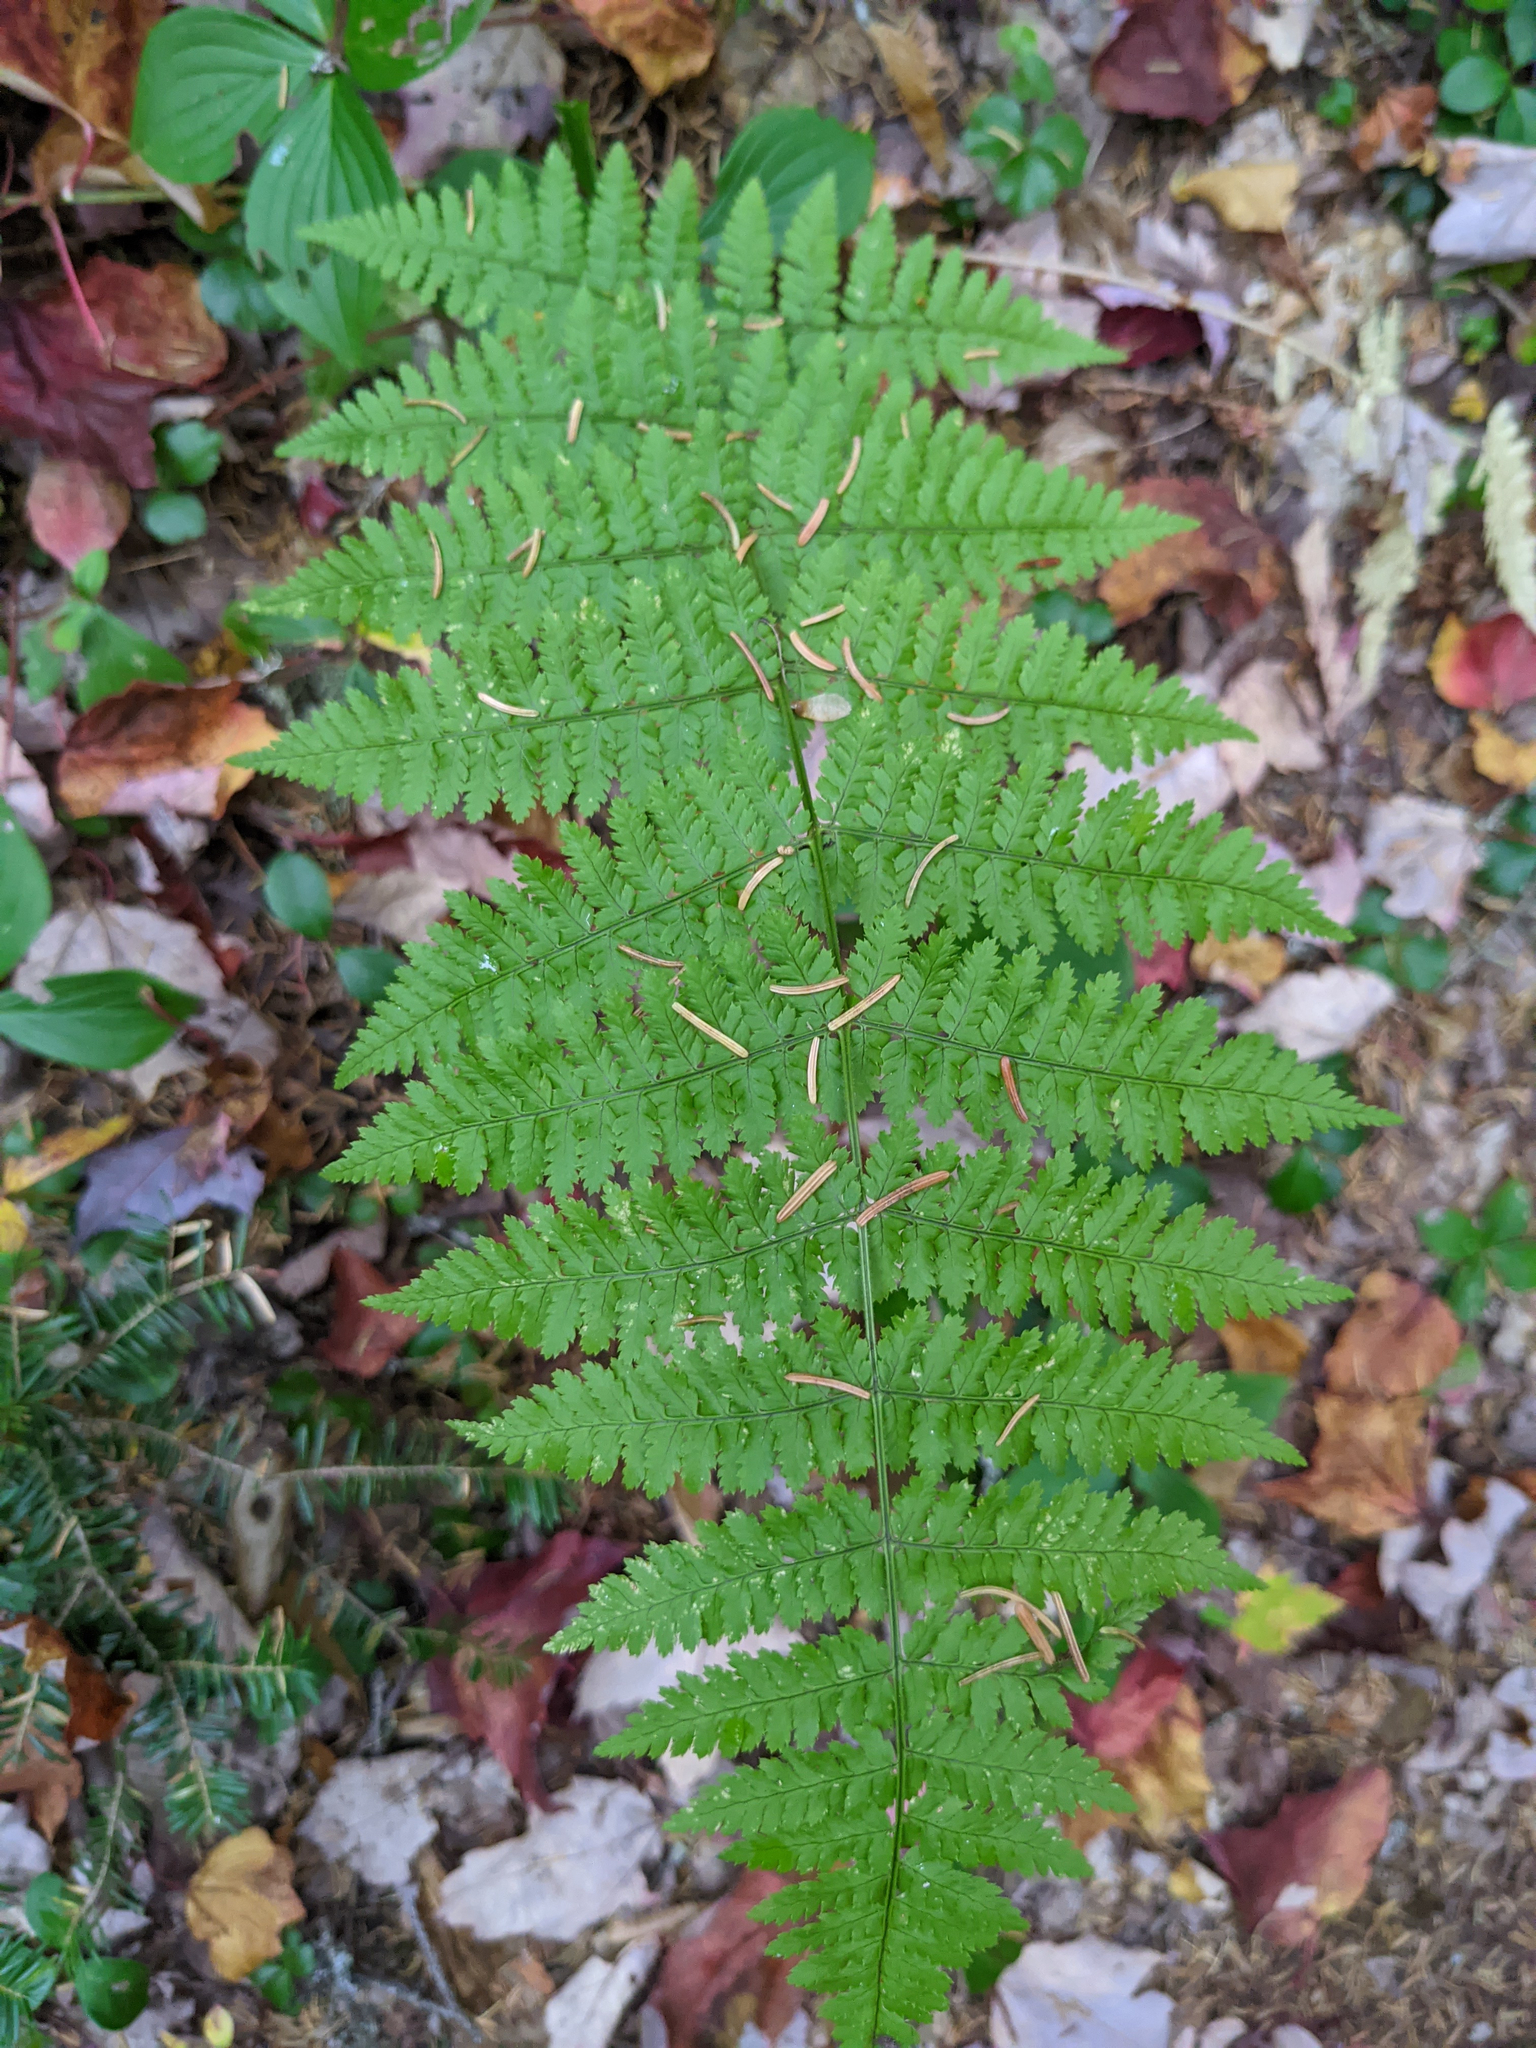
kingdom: Plantae
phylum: Tracheophyta
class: Polypodiopsida
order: Polypodiales
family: Dryopteridaceae
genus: Dryopteris
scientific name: Dryopteris intermedia
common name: Evergreen wood fern
